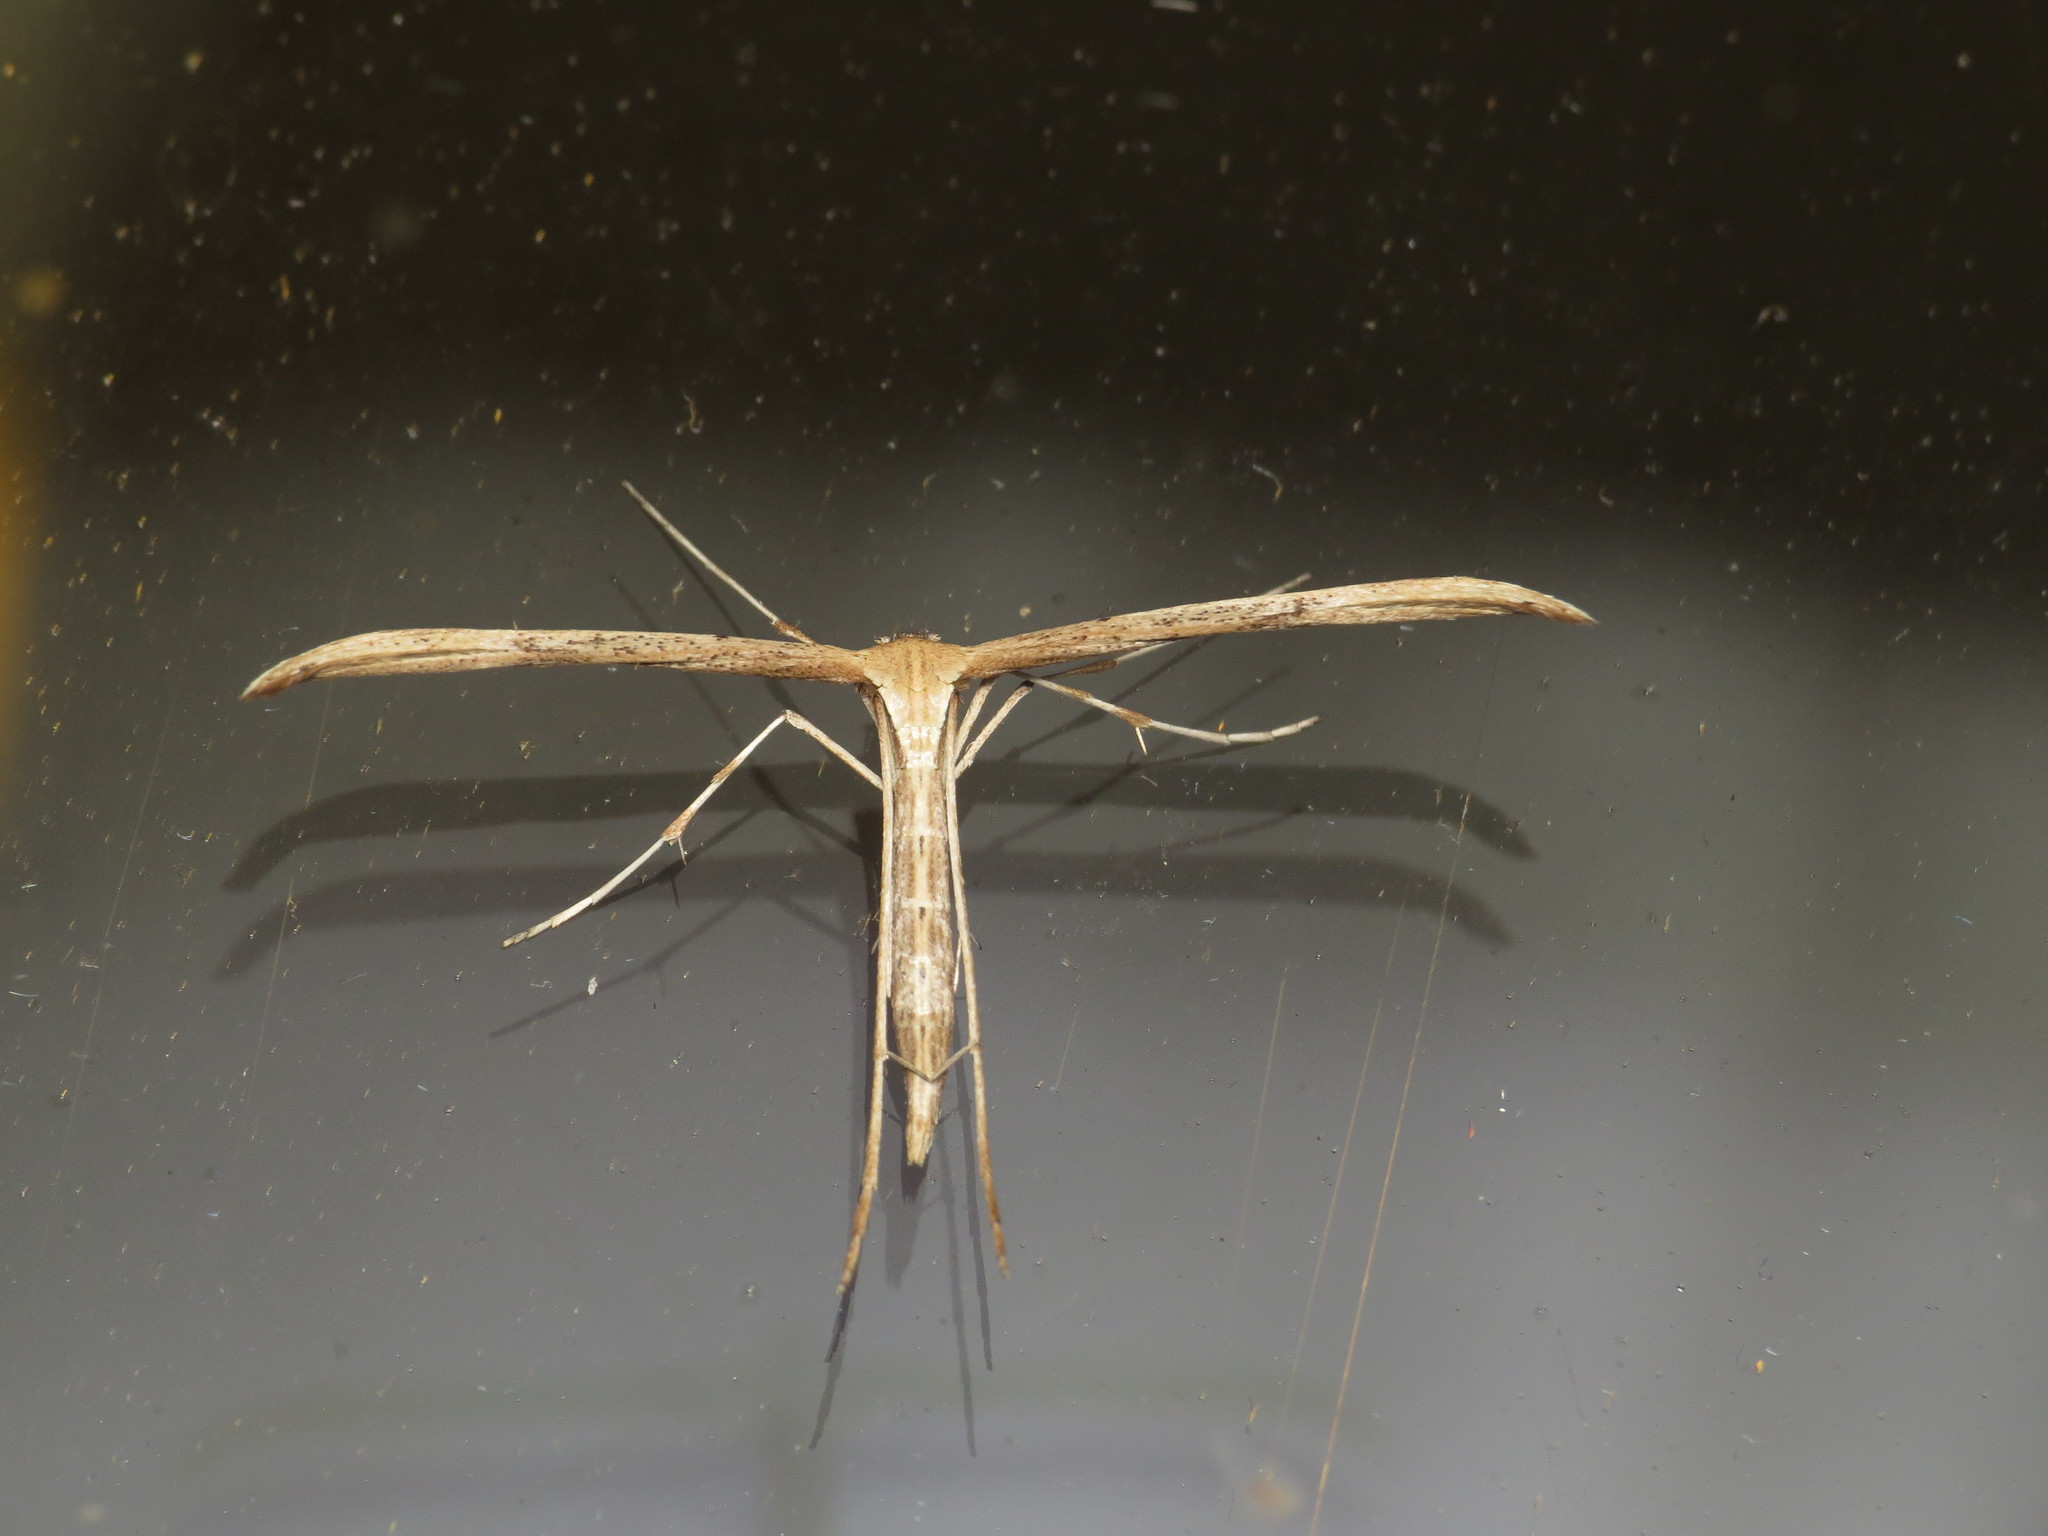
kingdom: Animalia
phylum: Arthropoda
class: Insecta
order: Lepidoptera
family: Pterophoridae
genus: Emmelina
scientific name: Emmelina monodactyla
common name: Common plume
